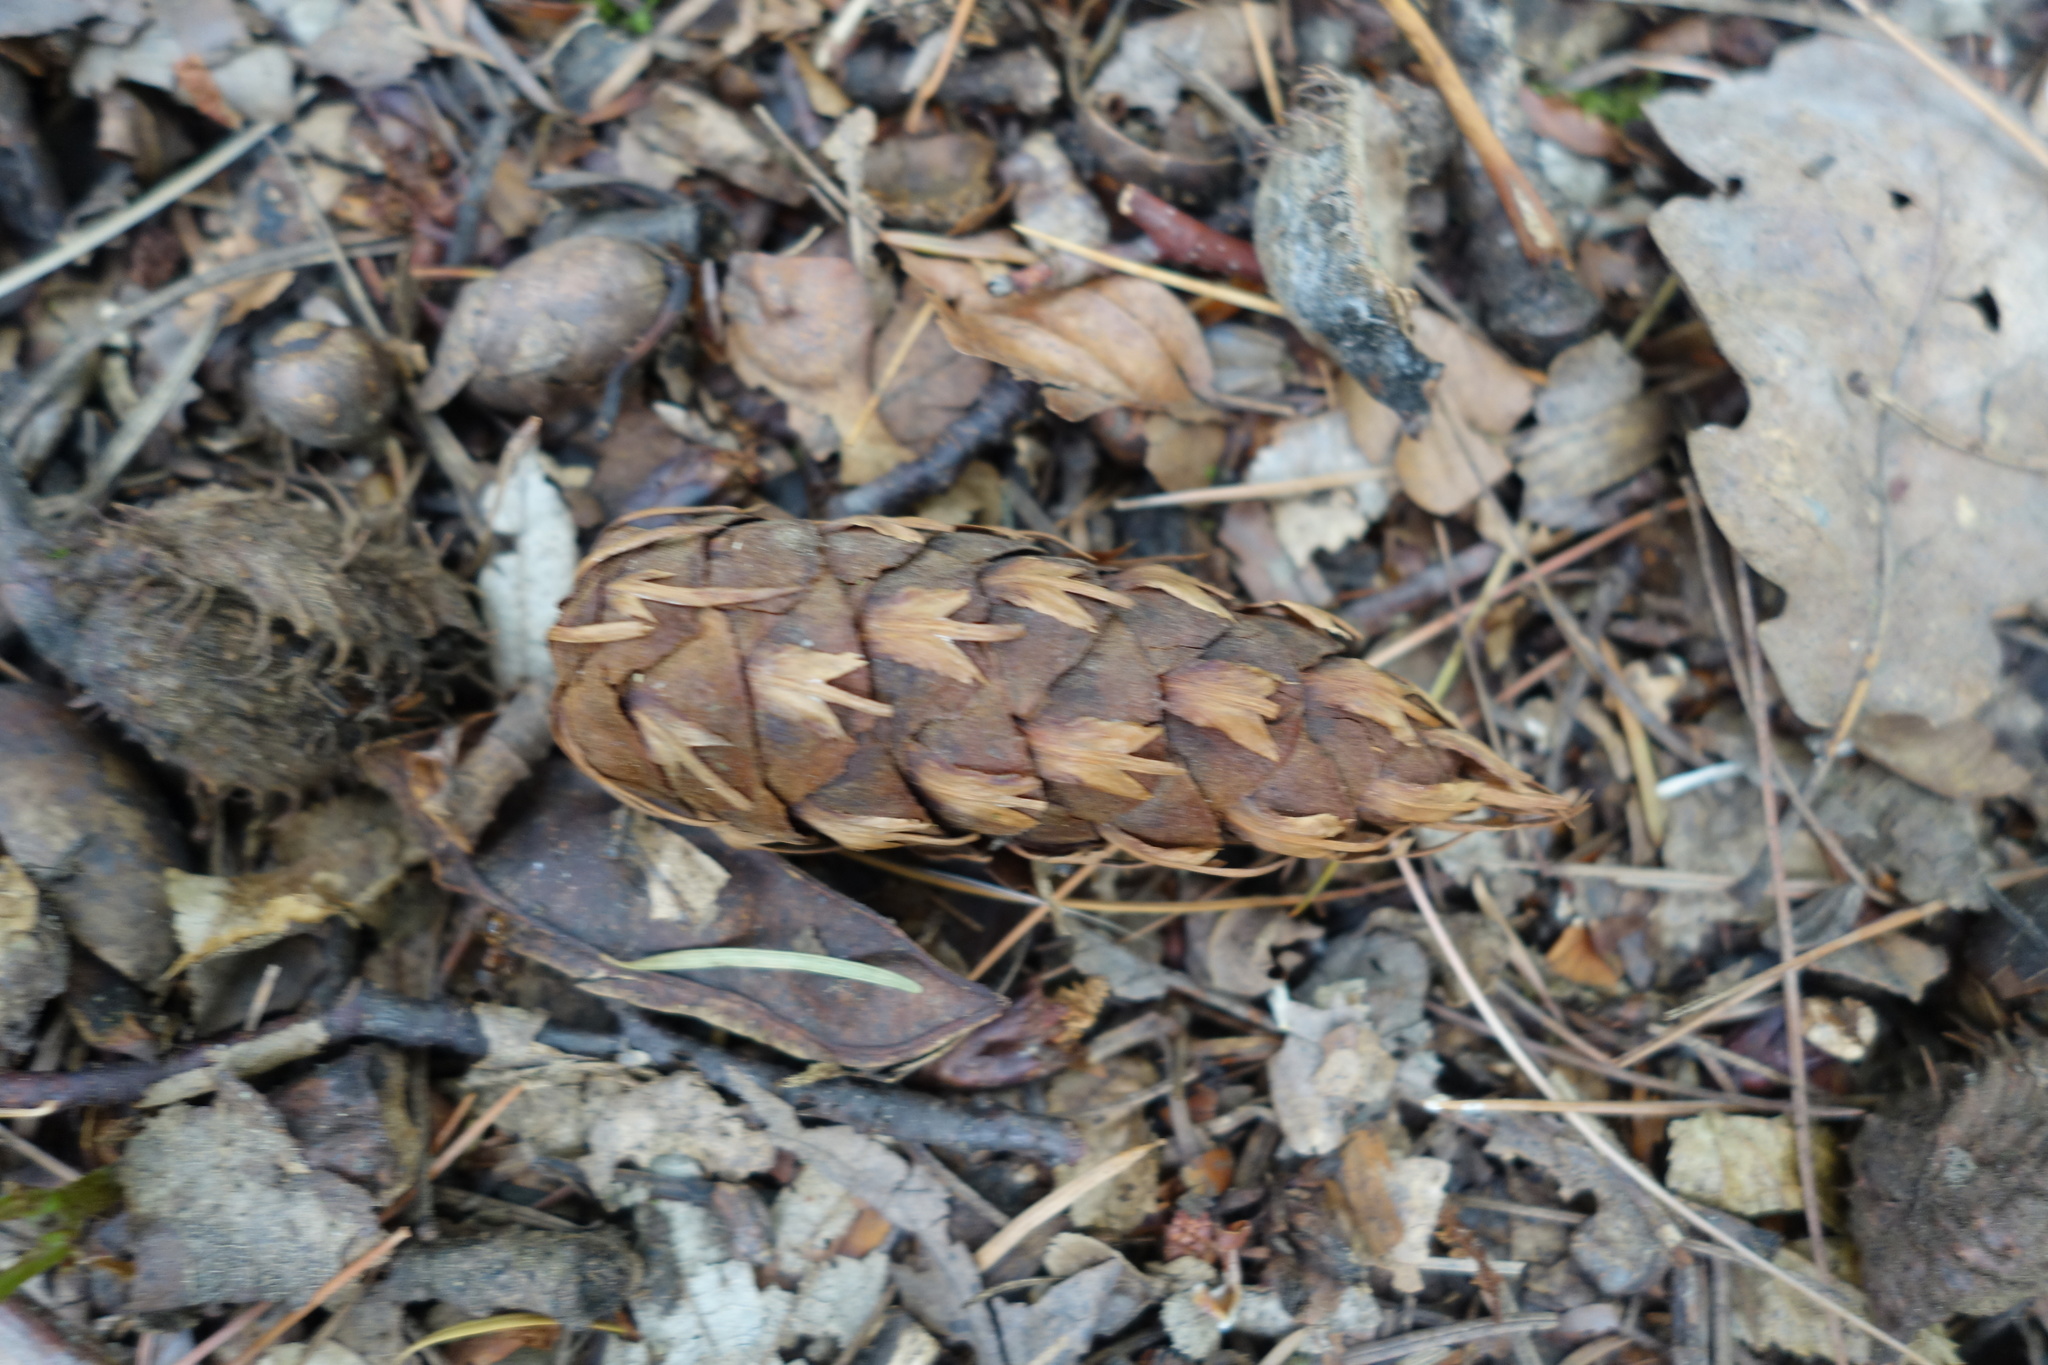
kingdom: Plantae
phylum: Tracheophyta
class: Pinopsida
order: Pinales
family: Pinaceae
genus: Pseudotsuga
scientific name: Pseudotsuga menziesii
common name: Douglas fir
